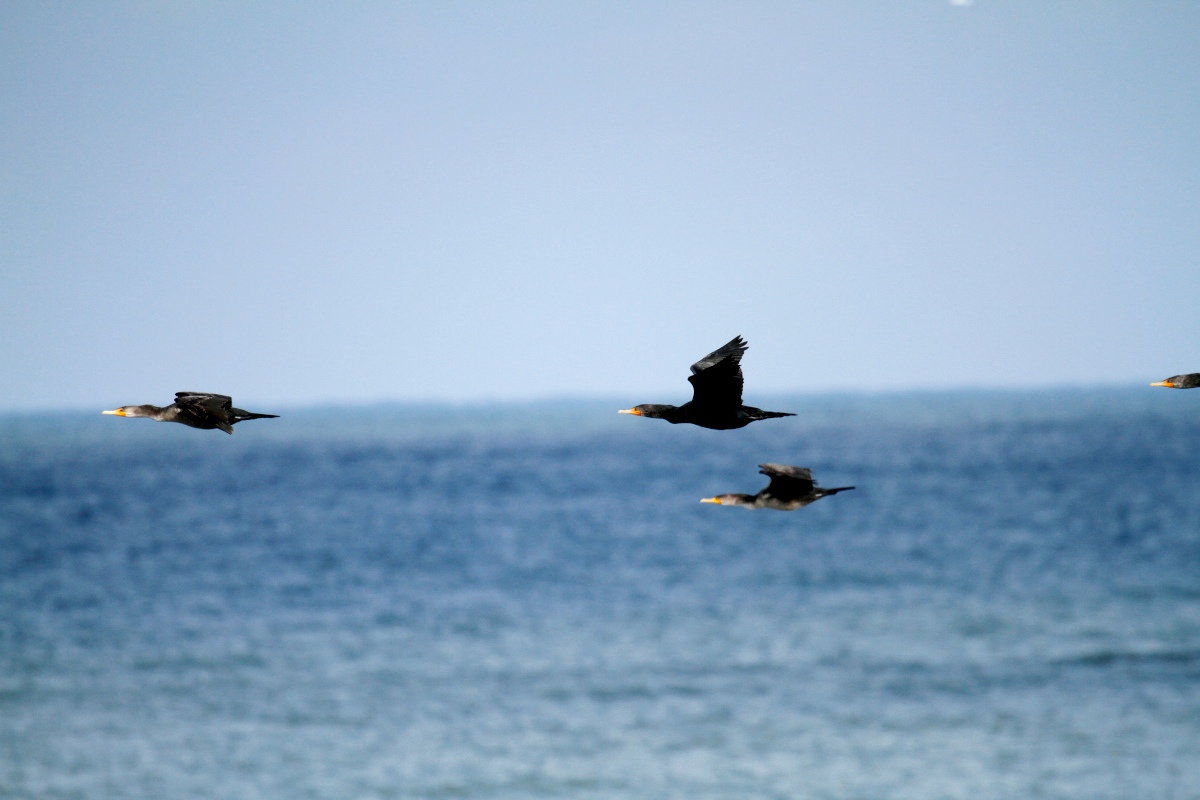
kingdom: Animalia
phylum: Chordata
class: Aves
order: Suliformes
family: Phalacrocoracidae
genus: Phalacrocorax
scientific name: Phalacrocorax auritus
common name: Double-crested cormorant
